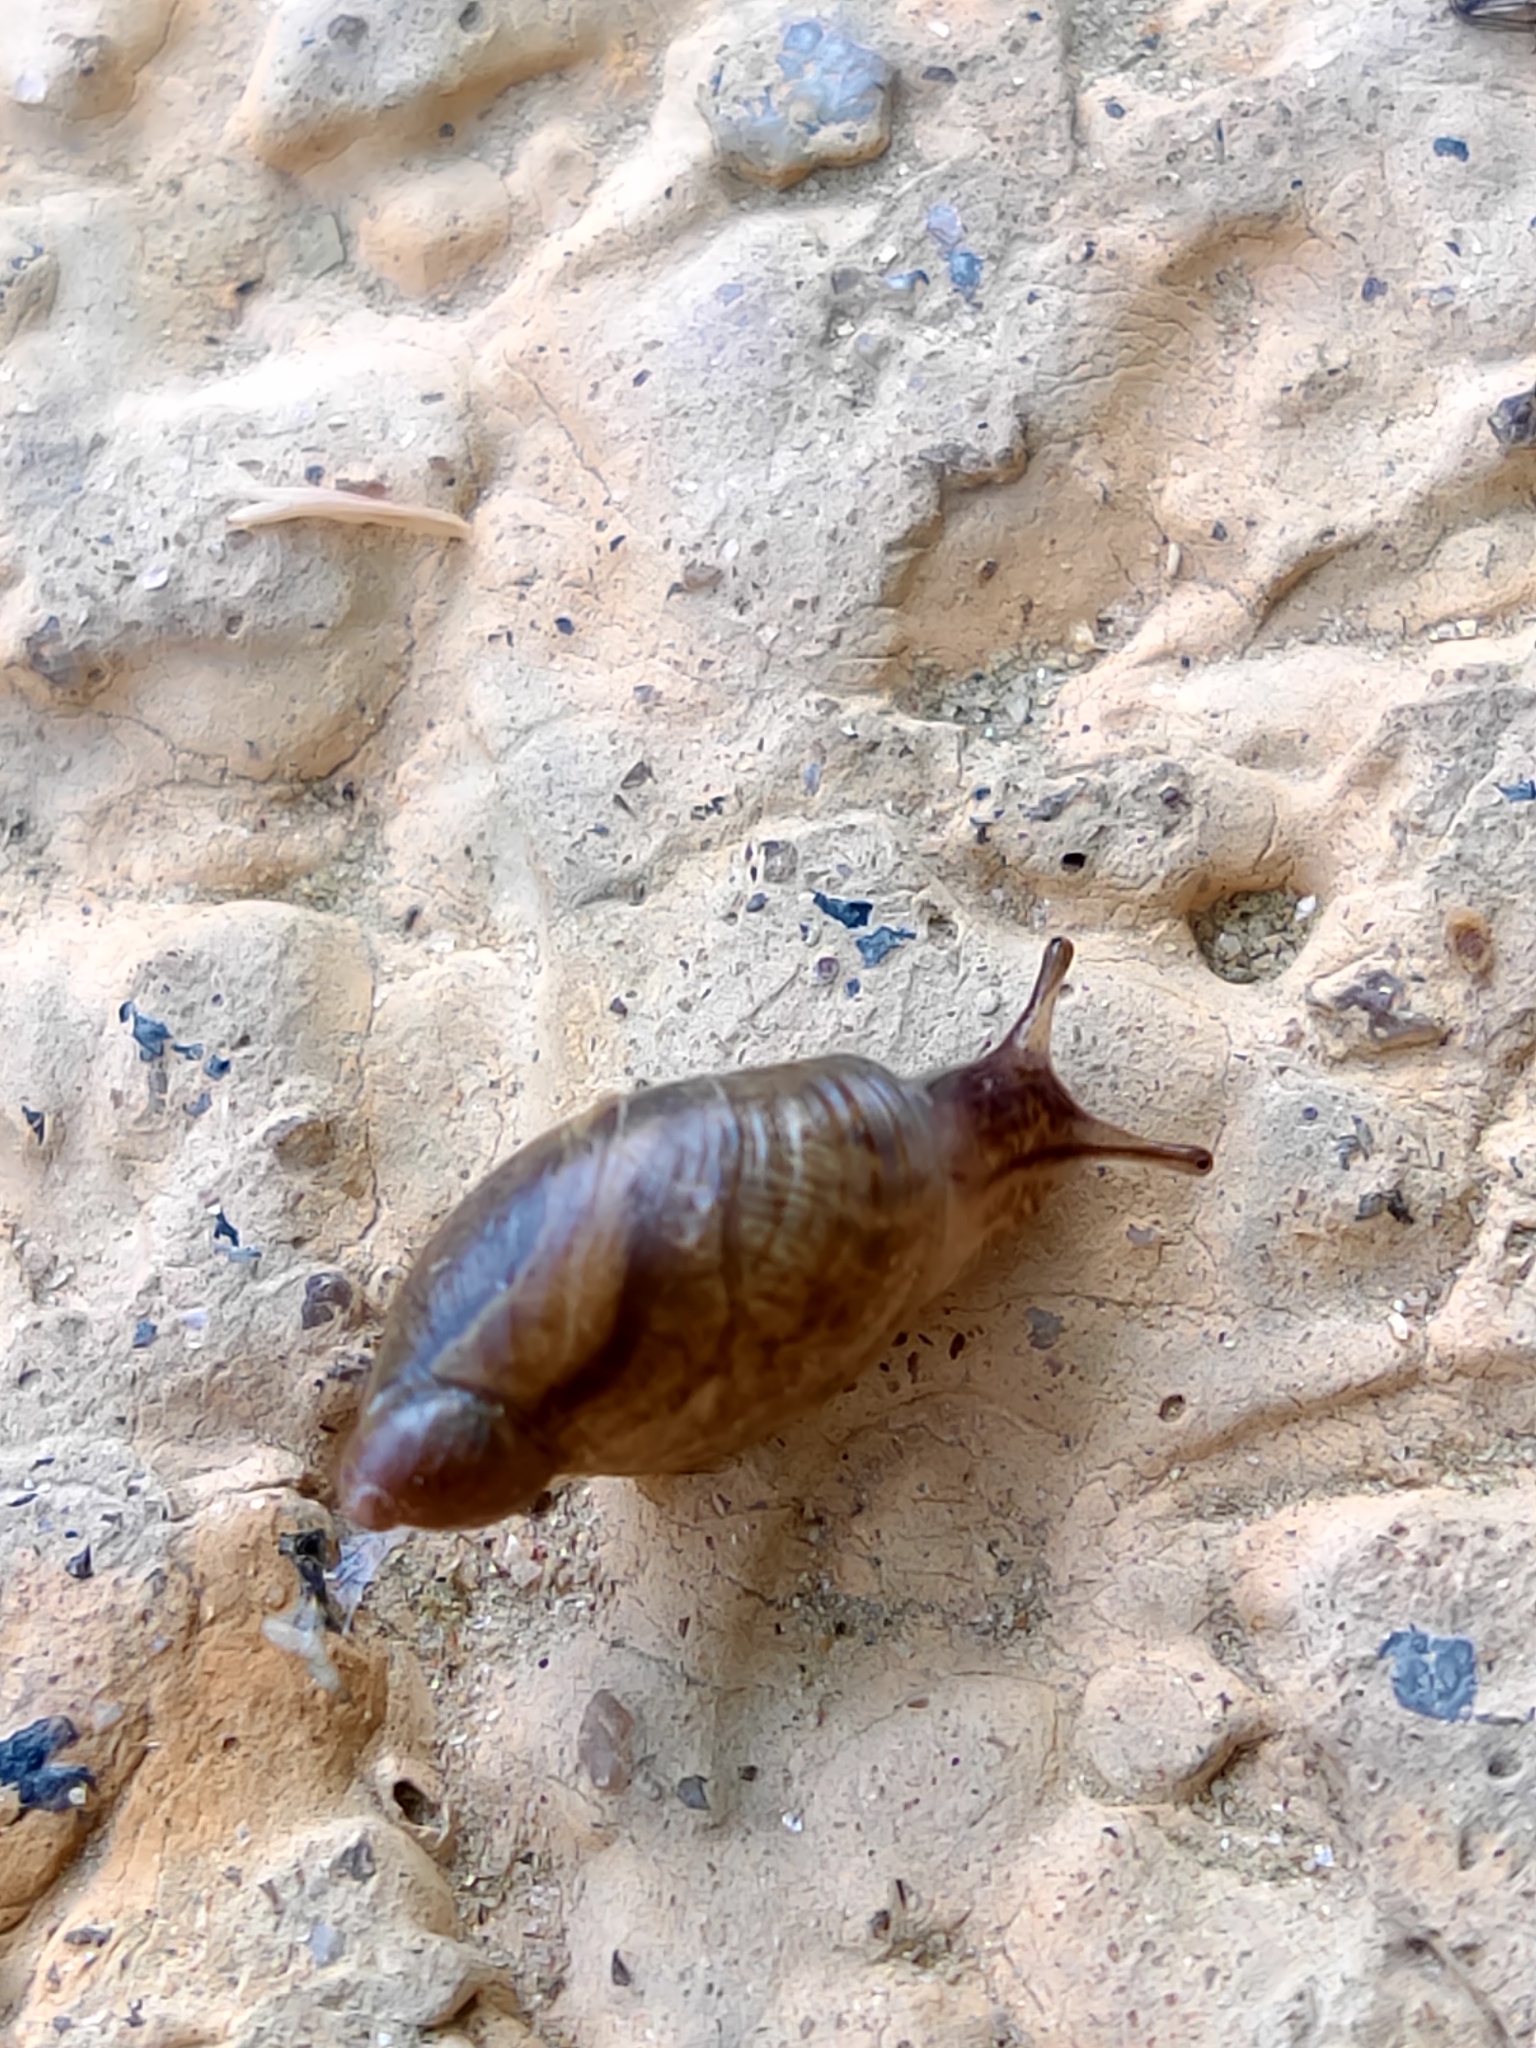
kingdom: Animalia
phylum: Mollusca
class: Gastropoda
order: Stylommatophora
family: Succineidae
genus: Oxyloma
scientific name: Oxyloma elegans
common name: Pfeiffer's amber snail
